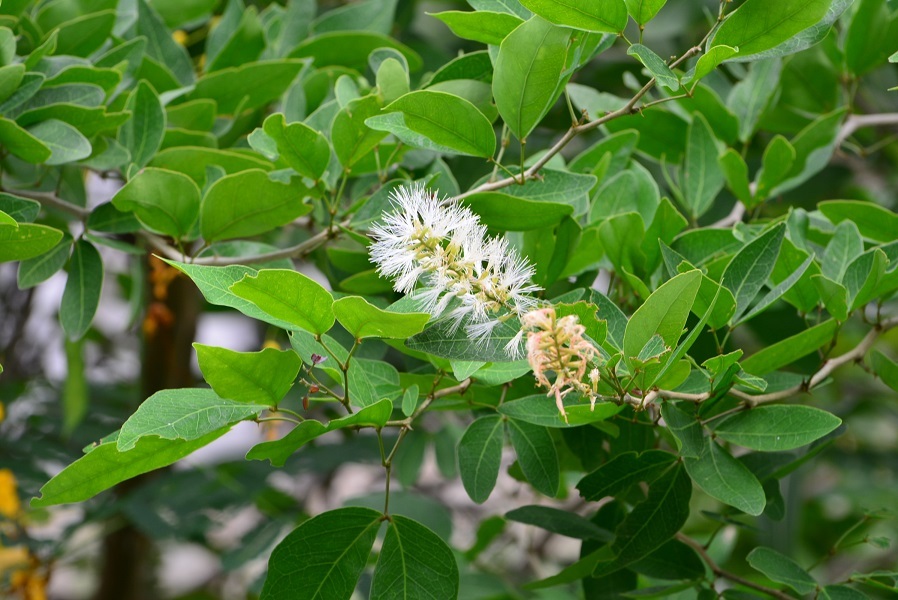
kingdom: Plantae
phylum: Tracheophyta
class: Magnoliopsida
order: Fabales
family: Fabaceae
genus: Pithecellobium
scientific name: Pithecellobium lanceolatum
